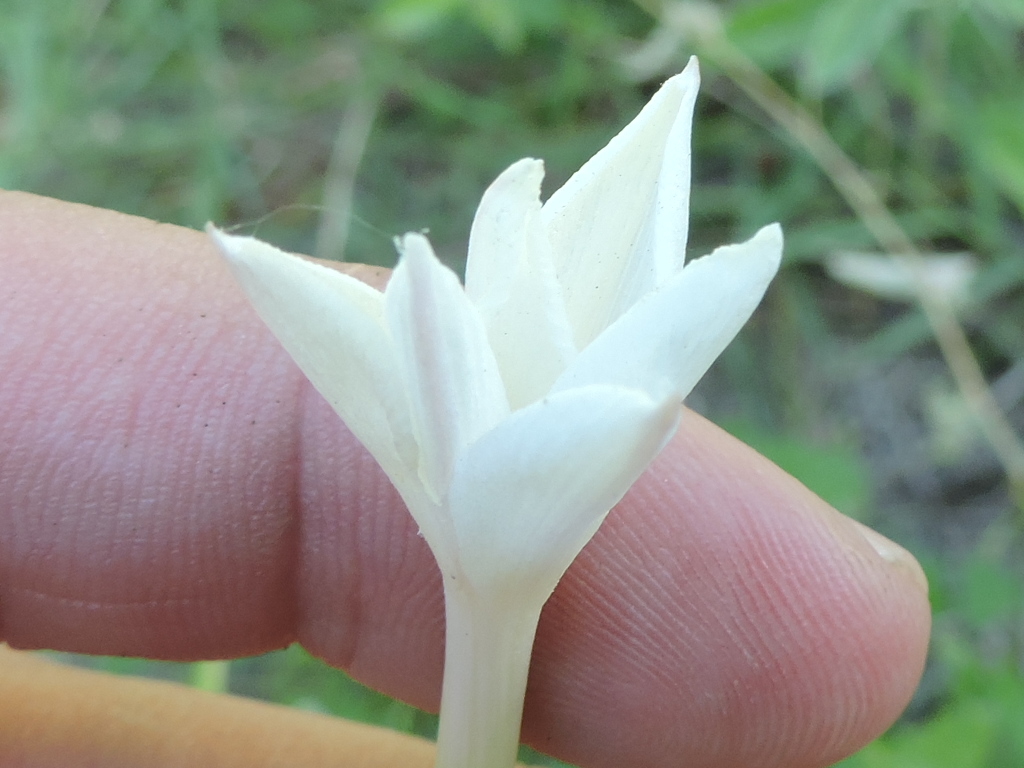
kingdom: Plantae
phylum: Tracheophyta
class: Liliopsida
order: Asparagales
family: Amaryllidaceae
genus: Zephyranthes
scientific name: Zephyranthes chlorosolen
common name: Evening rain-lily
